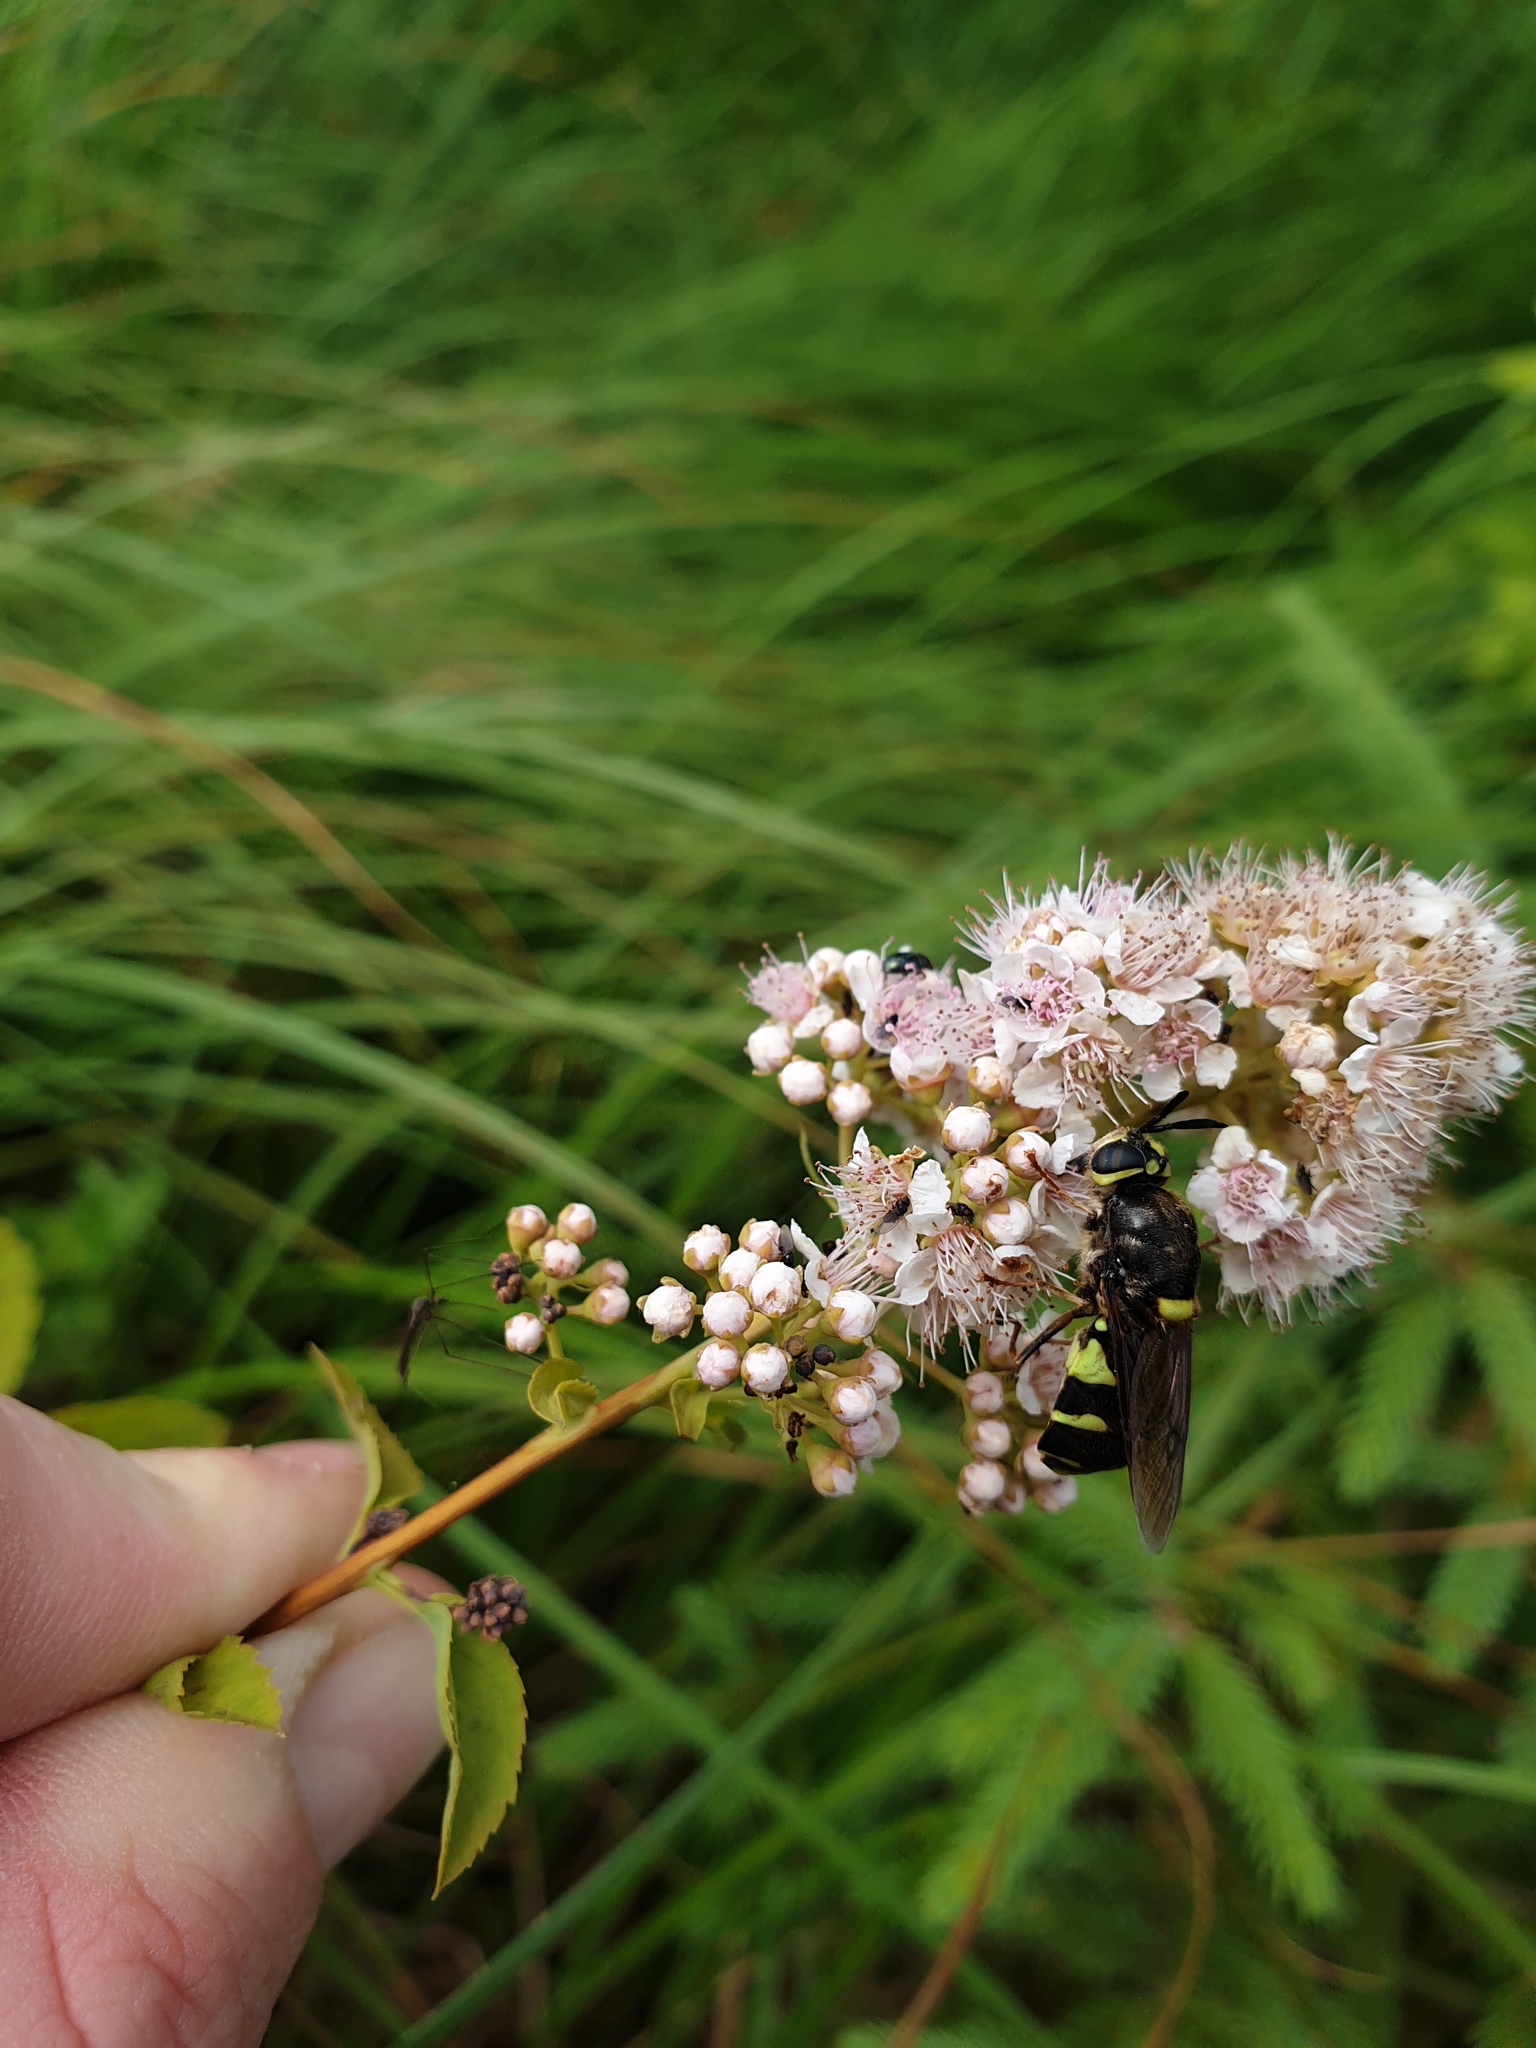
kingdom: Plantae
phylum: Tracheophyta
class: Magnoliopsida
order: Rosales
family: Rosaceae
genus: Spiraea
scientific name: Spiraea alba
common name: Pale bridewort
